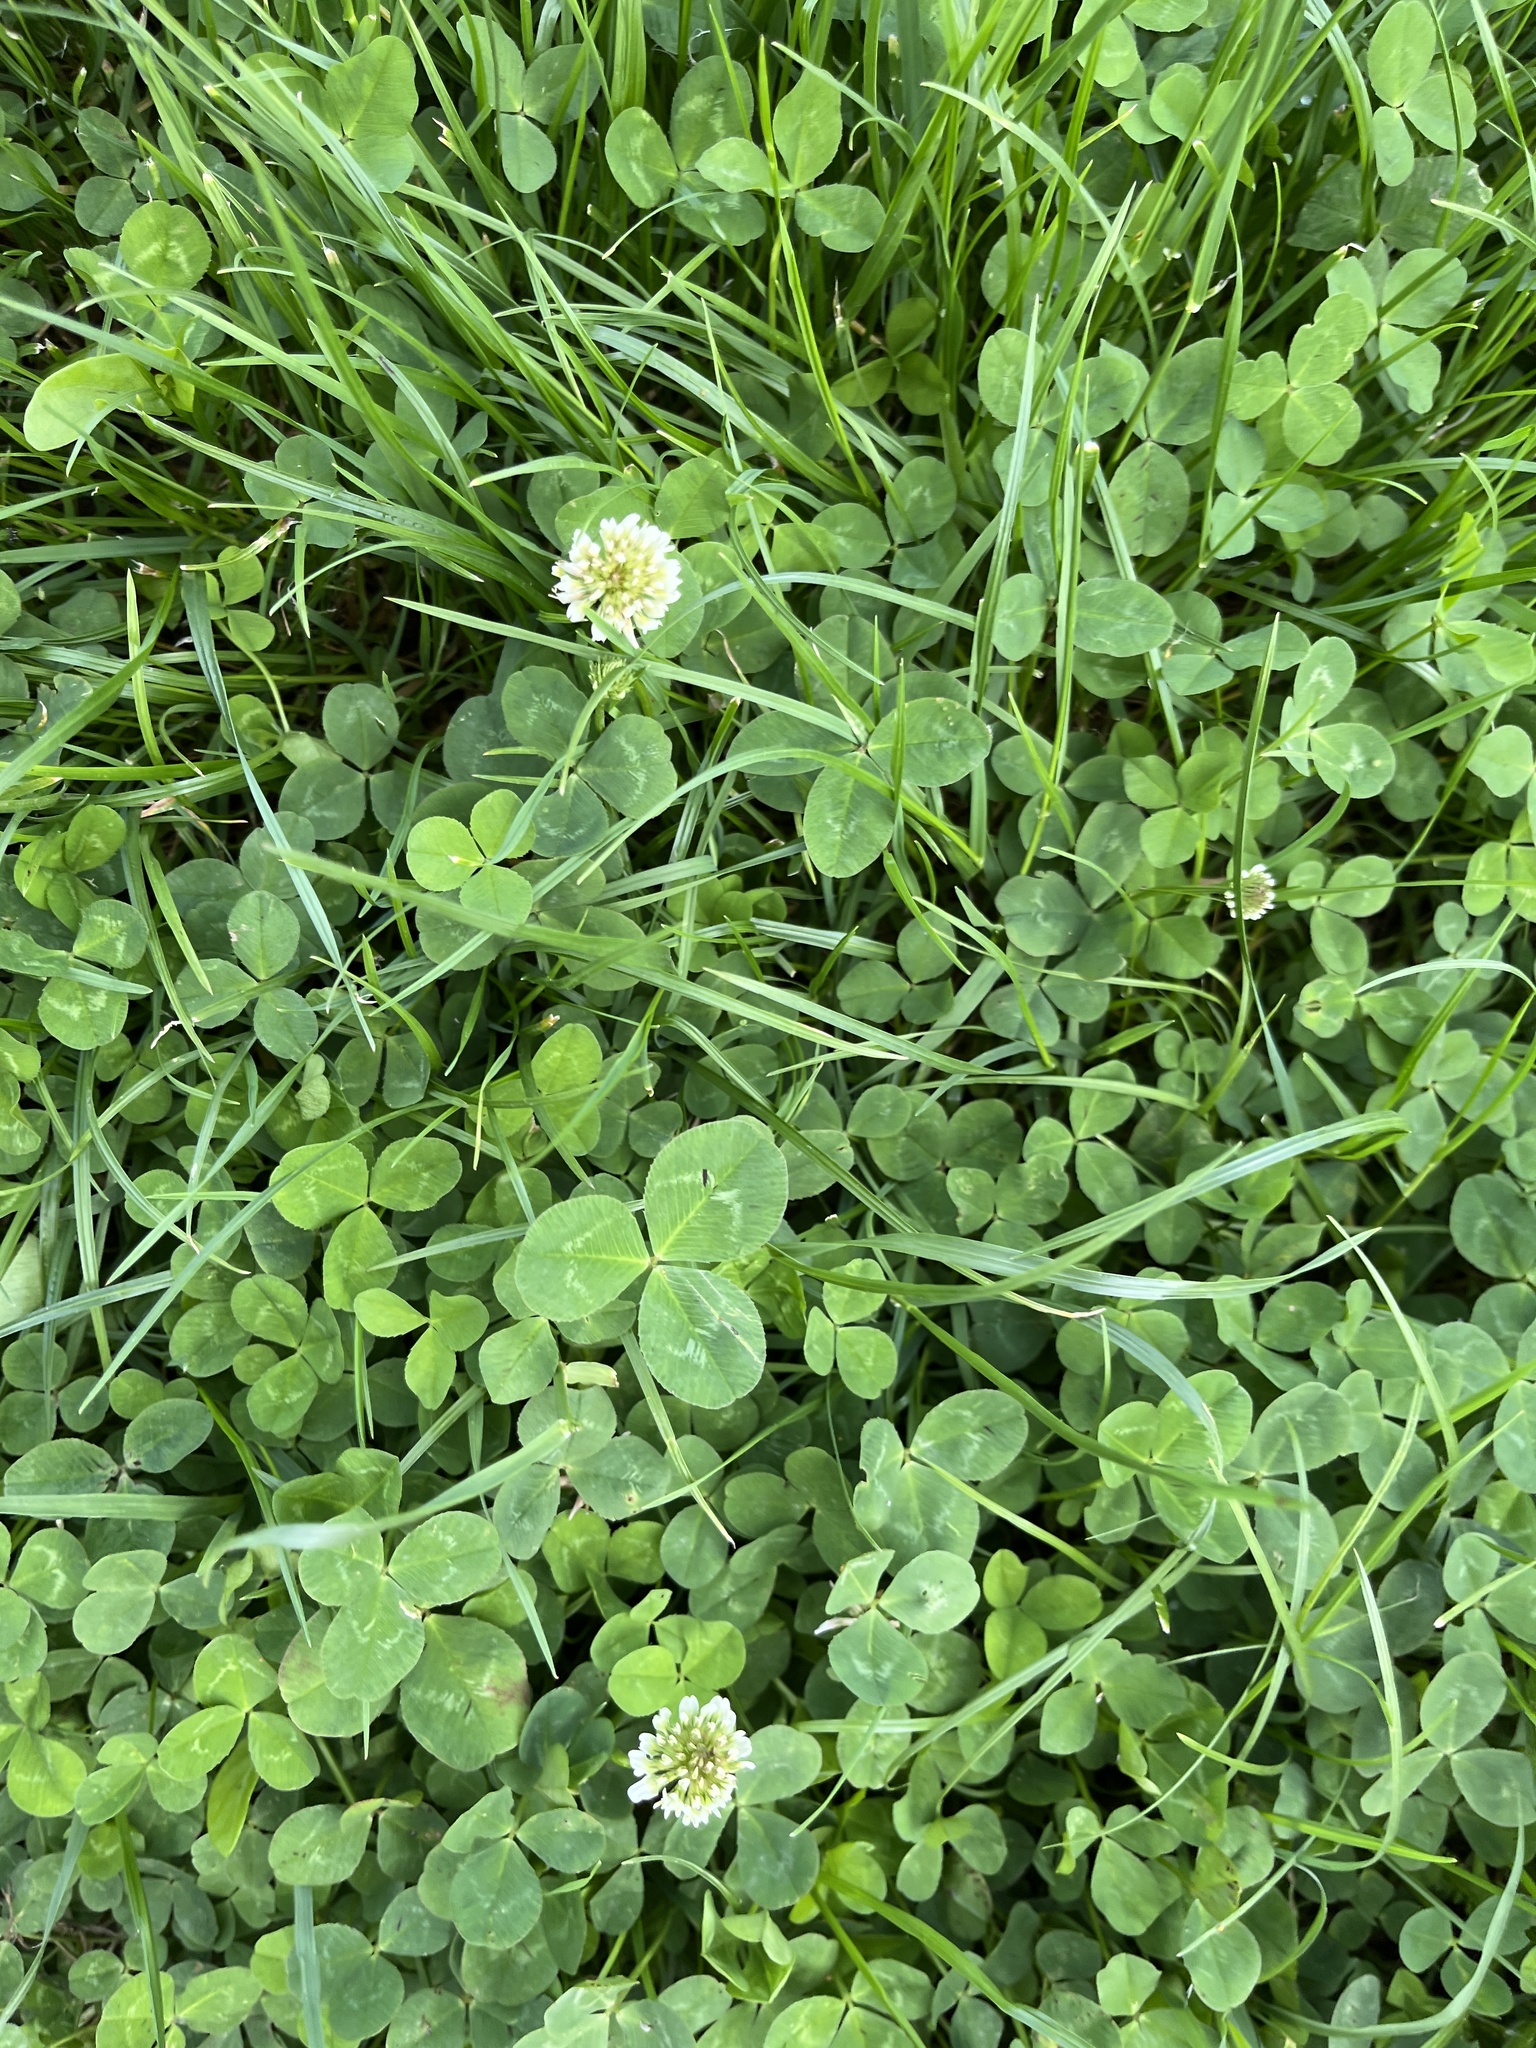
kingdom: Plantae
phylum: Tracheophyta
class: Magnoliopsida
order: Fabales
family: Fabaceae
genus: Trifolium
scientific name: Trifolium repens
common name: White clover
